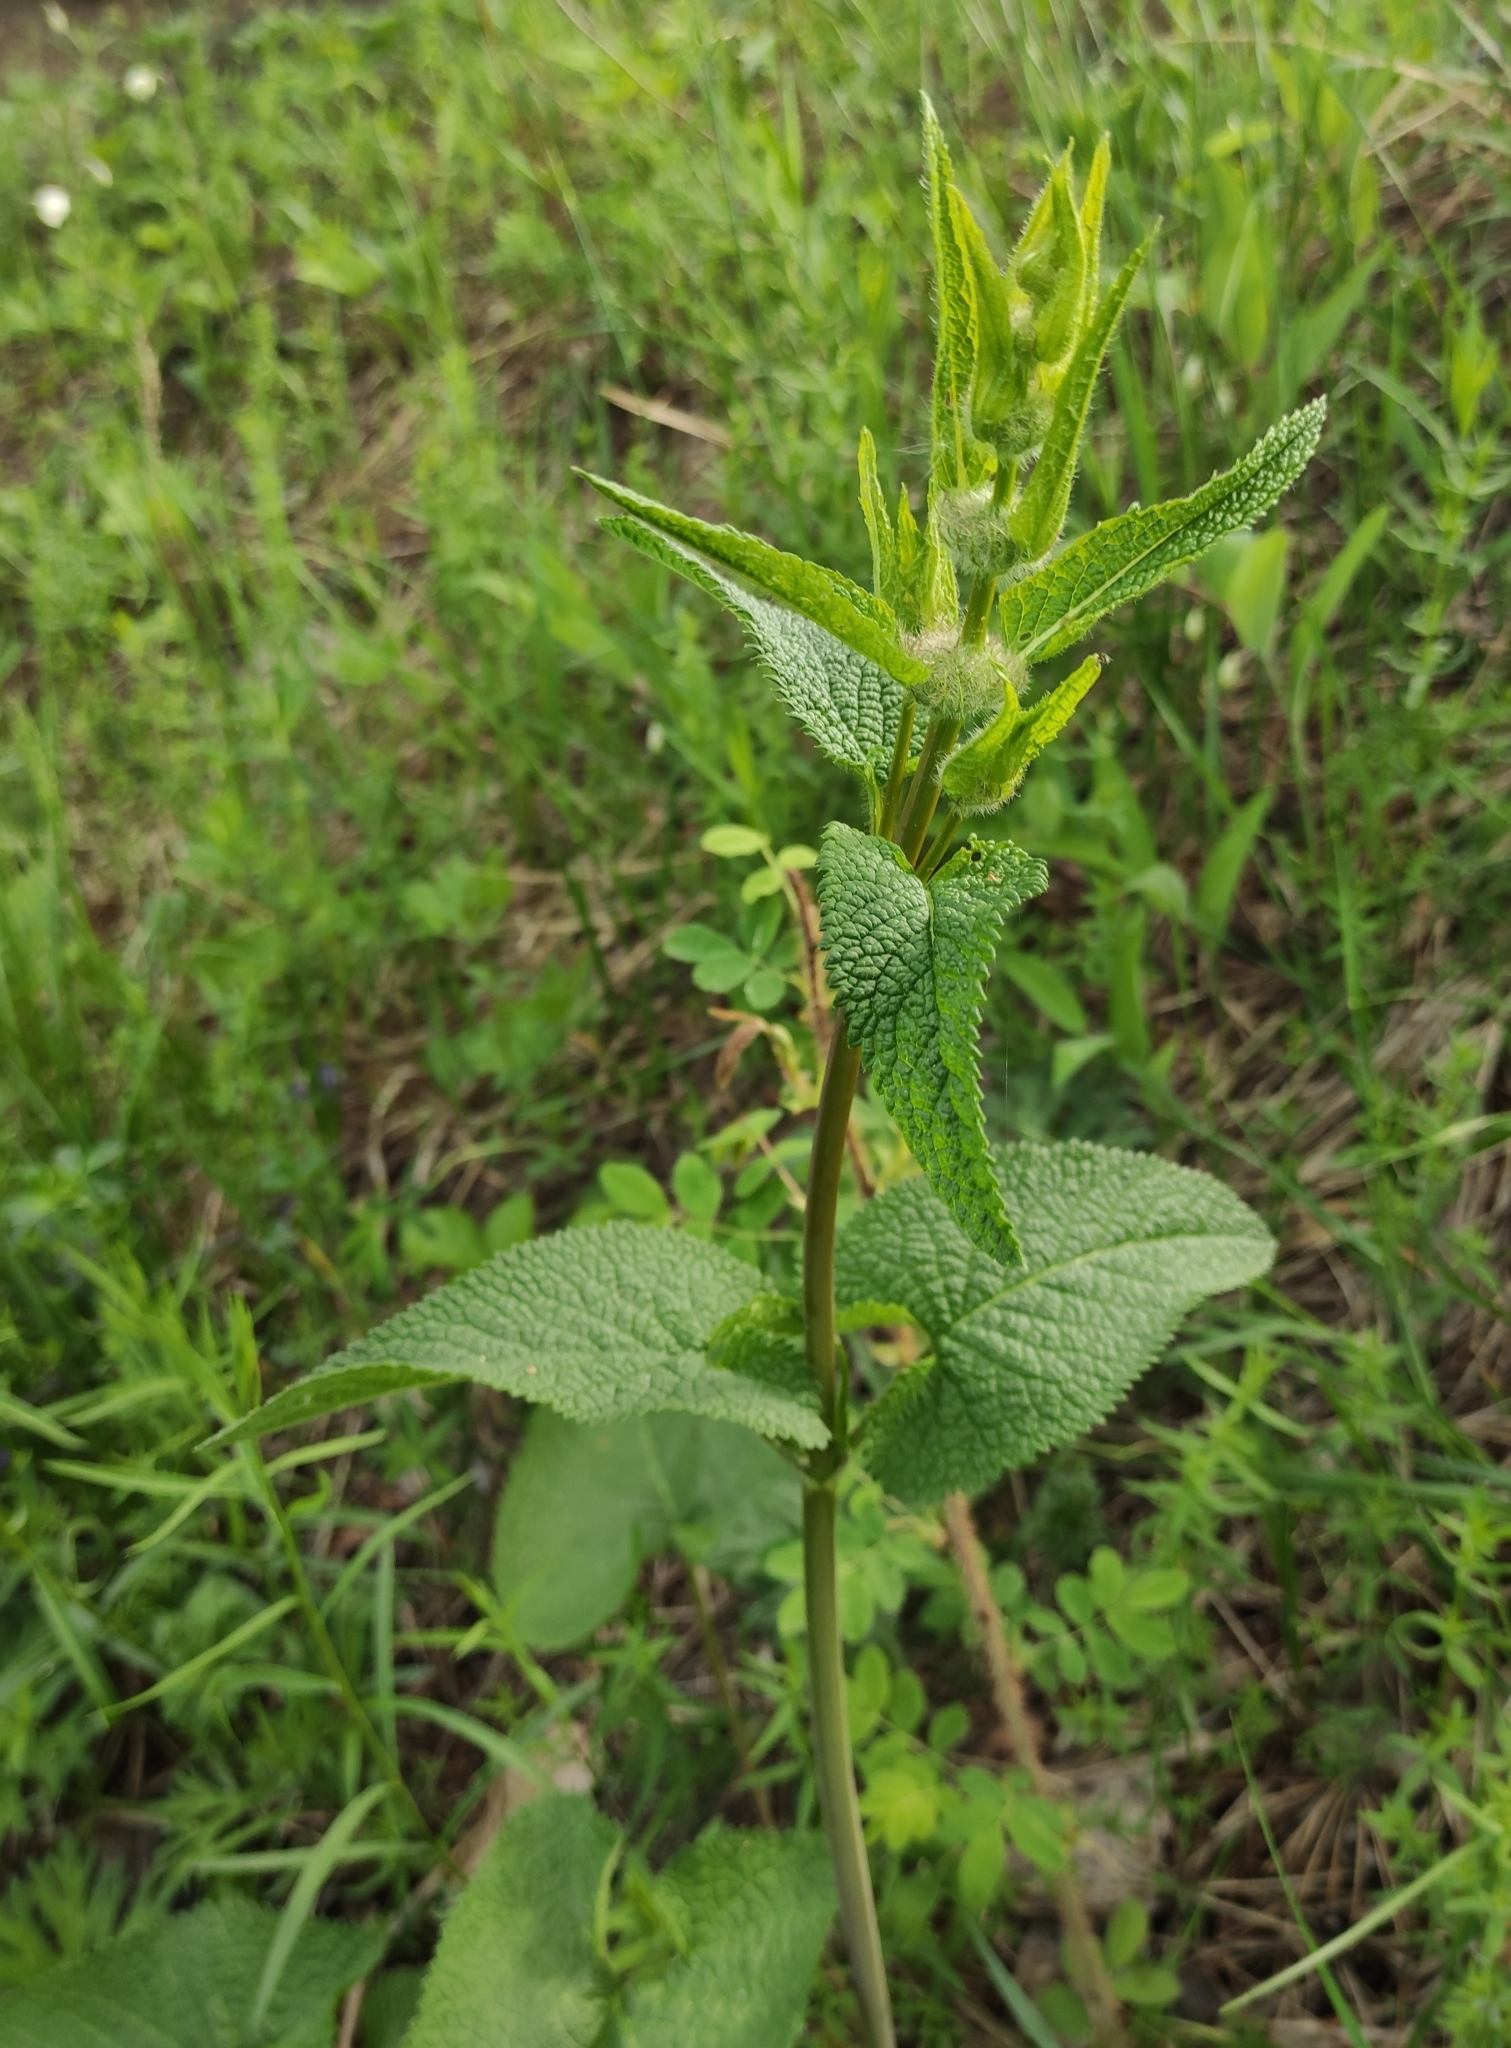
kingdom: Plantae
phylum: Tracheophyta
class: Magnoliopsida
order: Lamiales
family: Lamiaceae
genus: Phlomoides
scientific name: Phlomoides tuberosa
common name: Tuberous jerusalem sage
